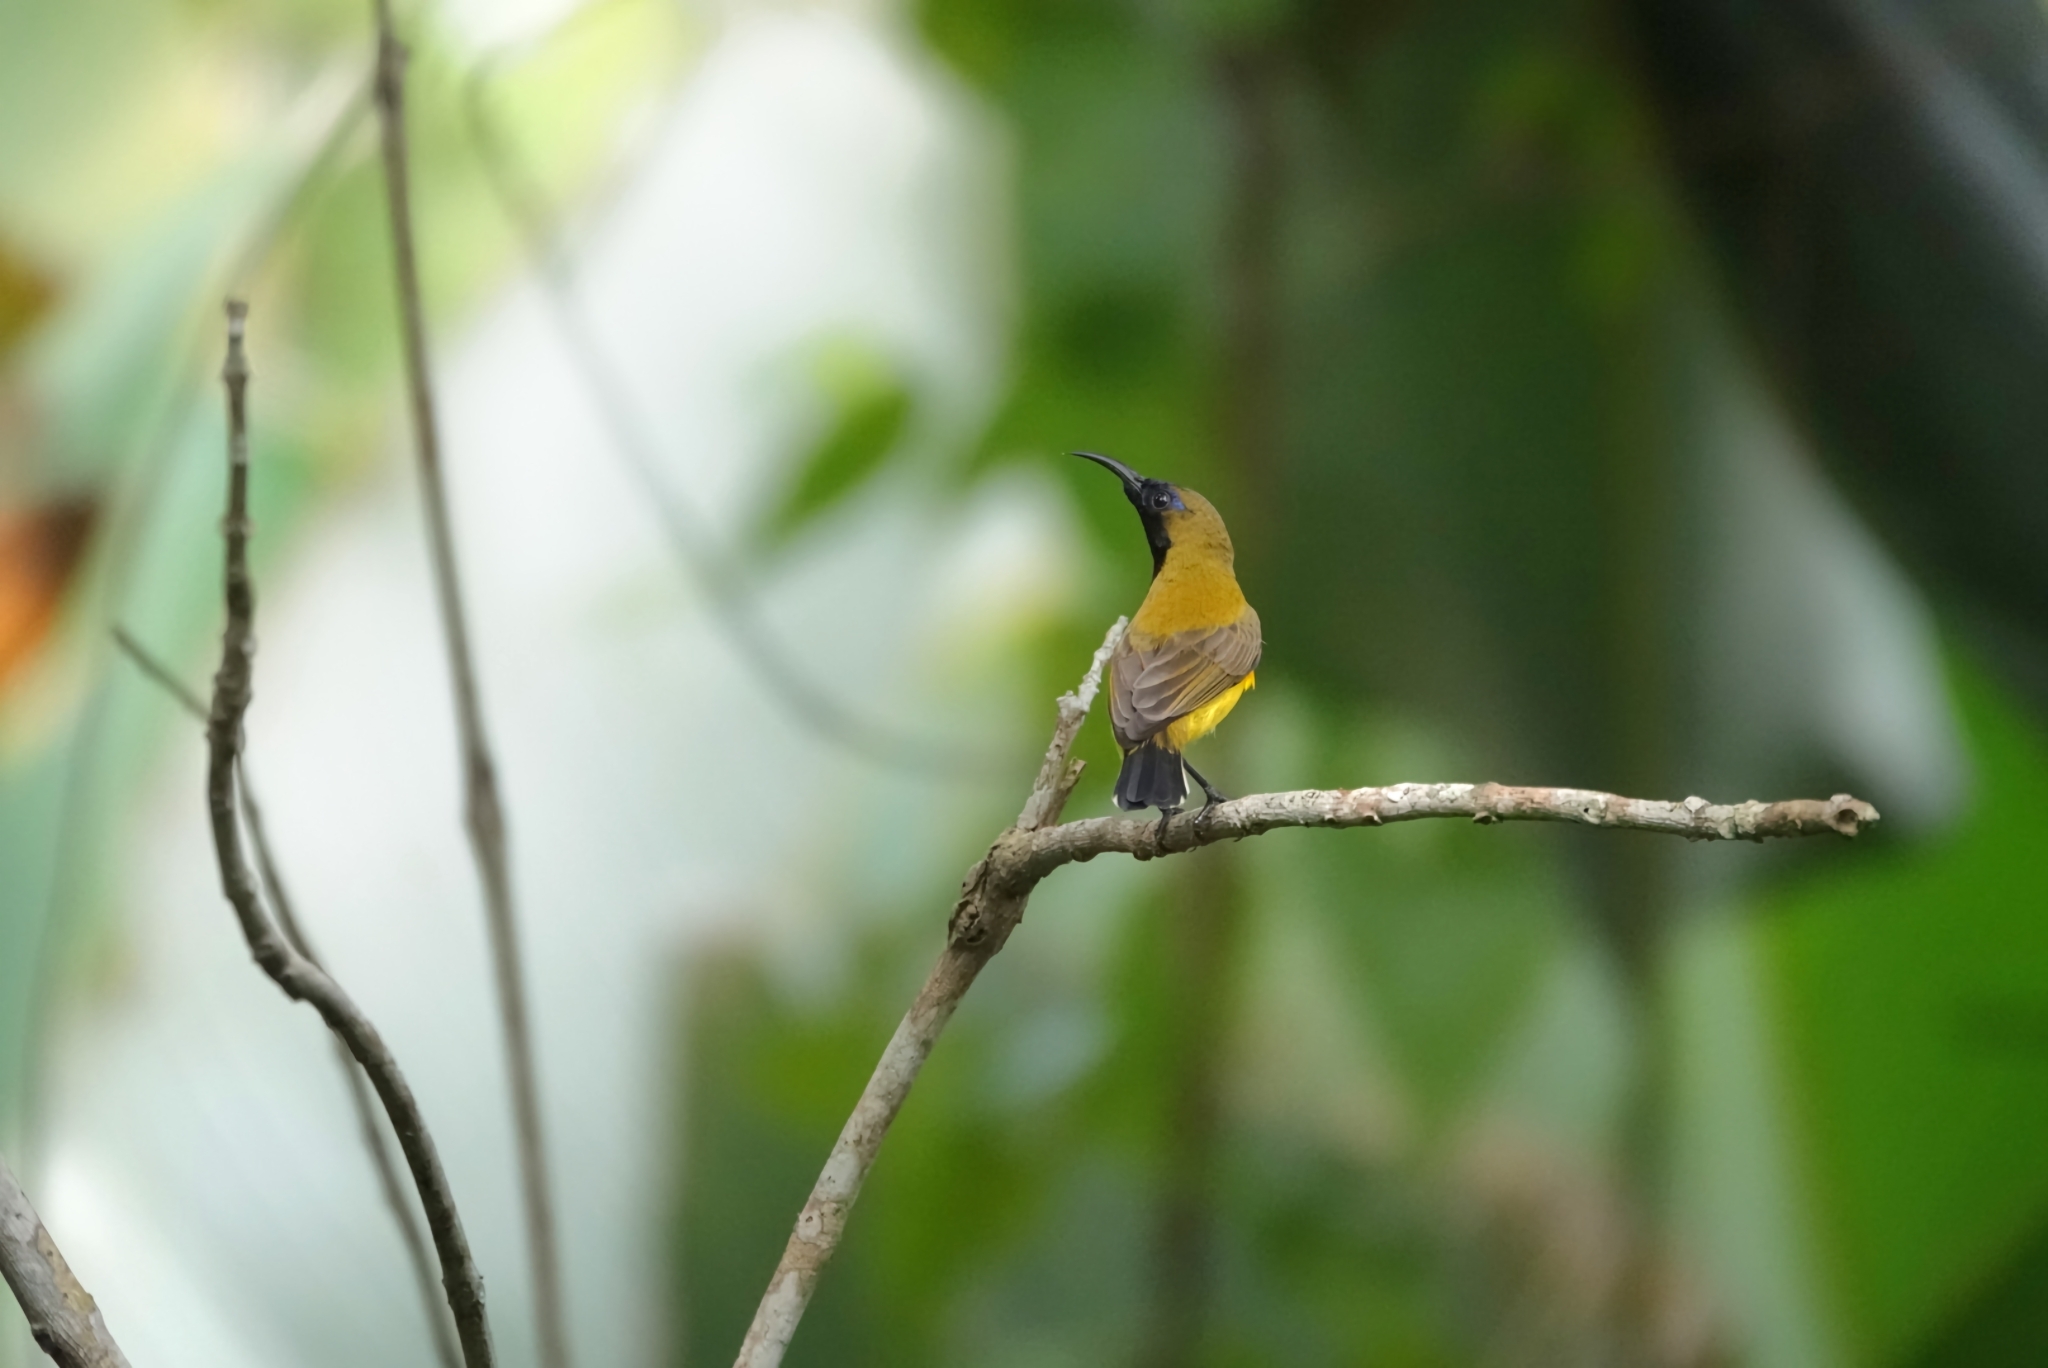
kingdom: Animalia
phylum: Chordata
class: Aves
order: Passeriformes
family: Nectariniidae
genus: Cinnyris
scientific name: Cinnyris
